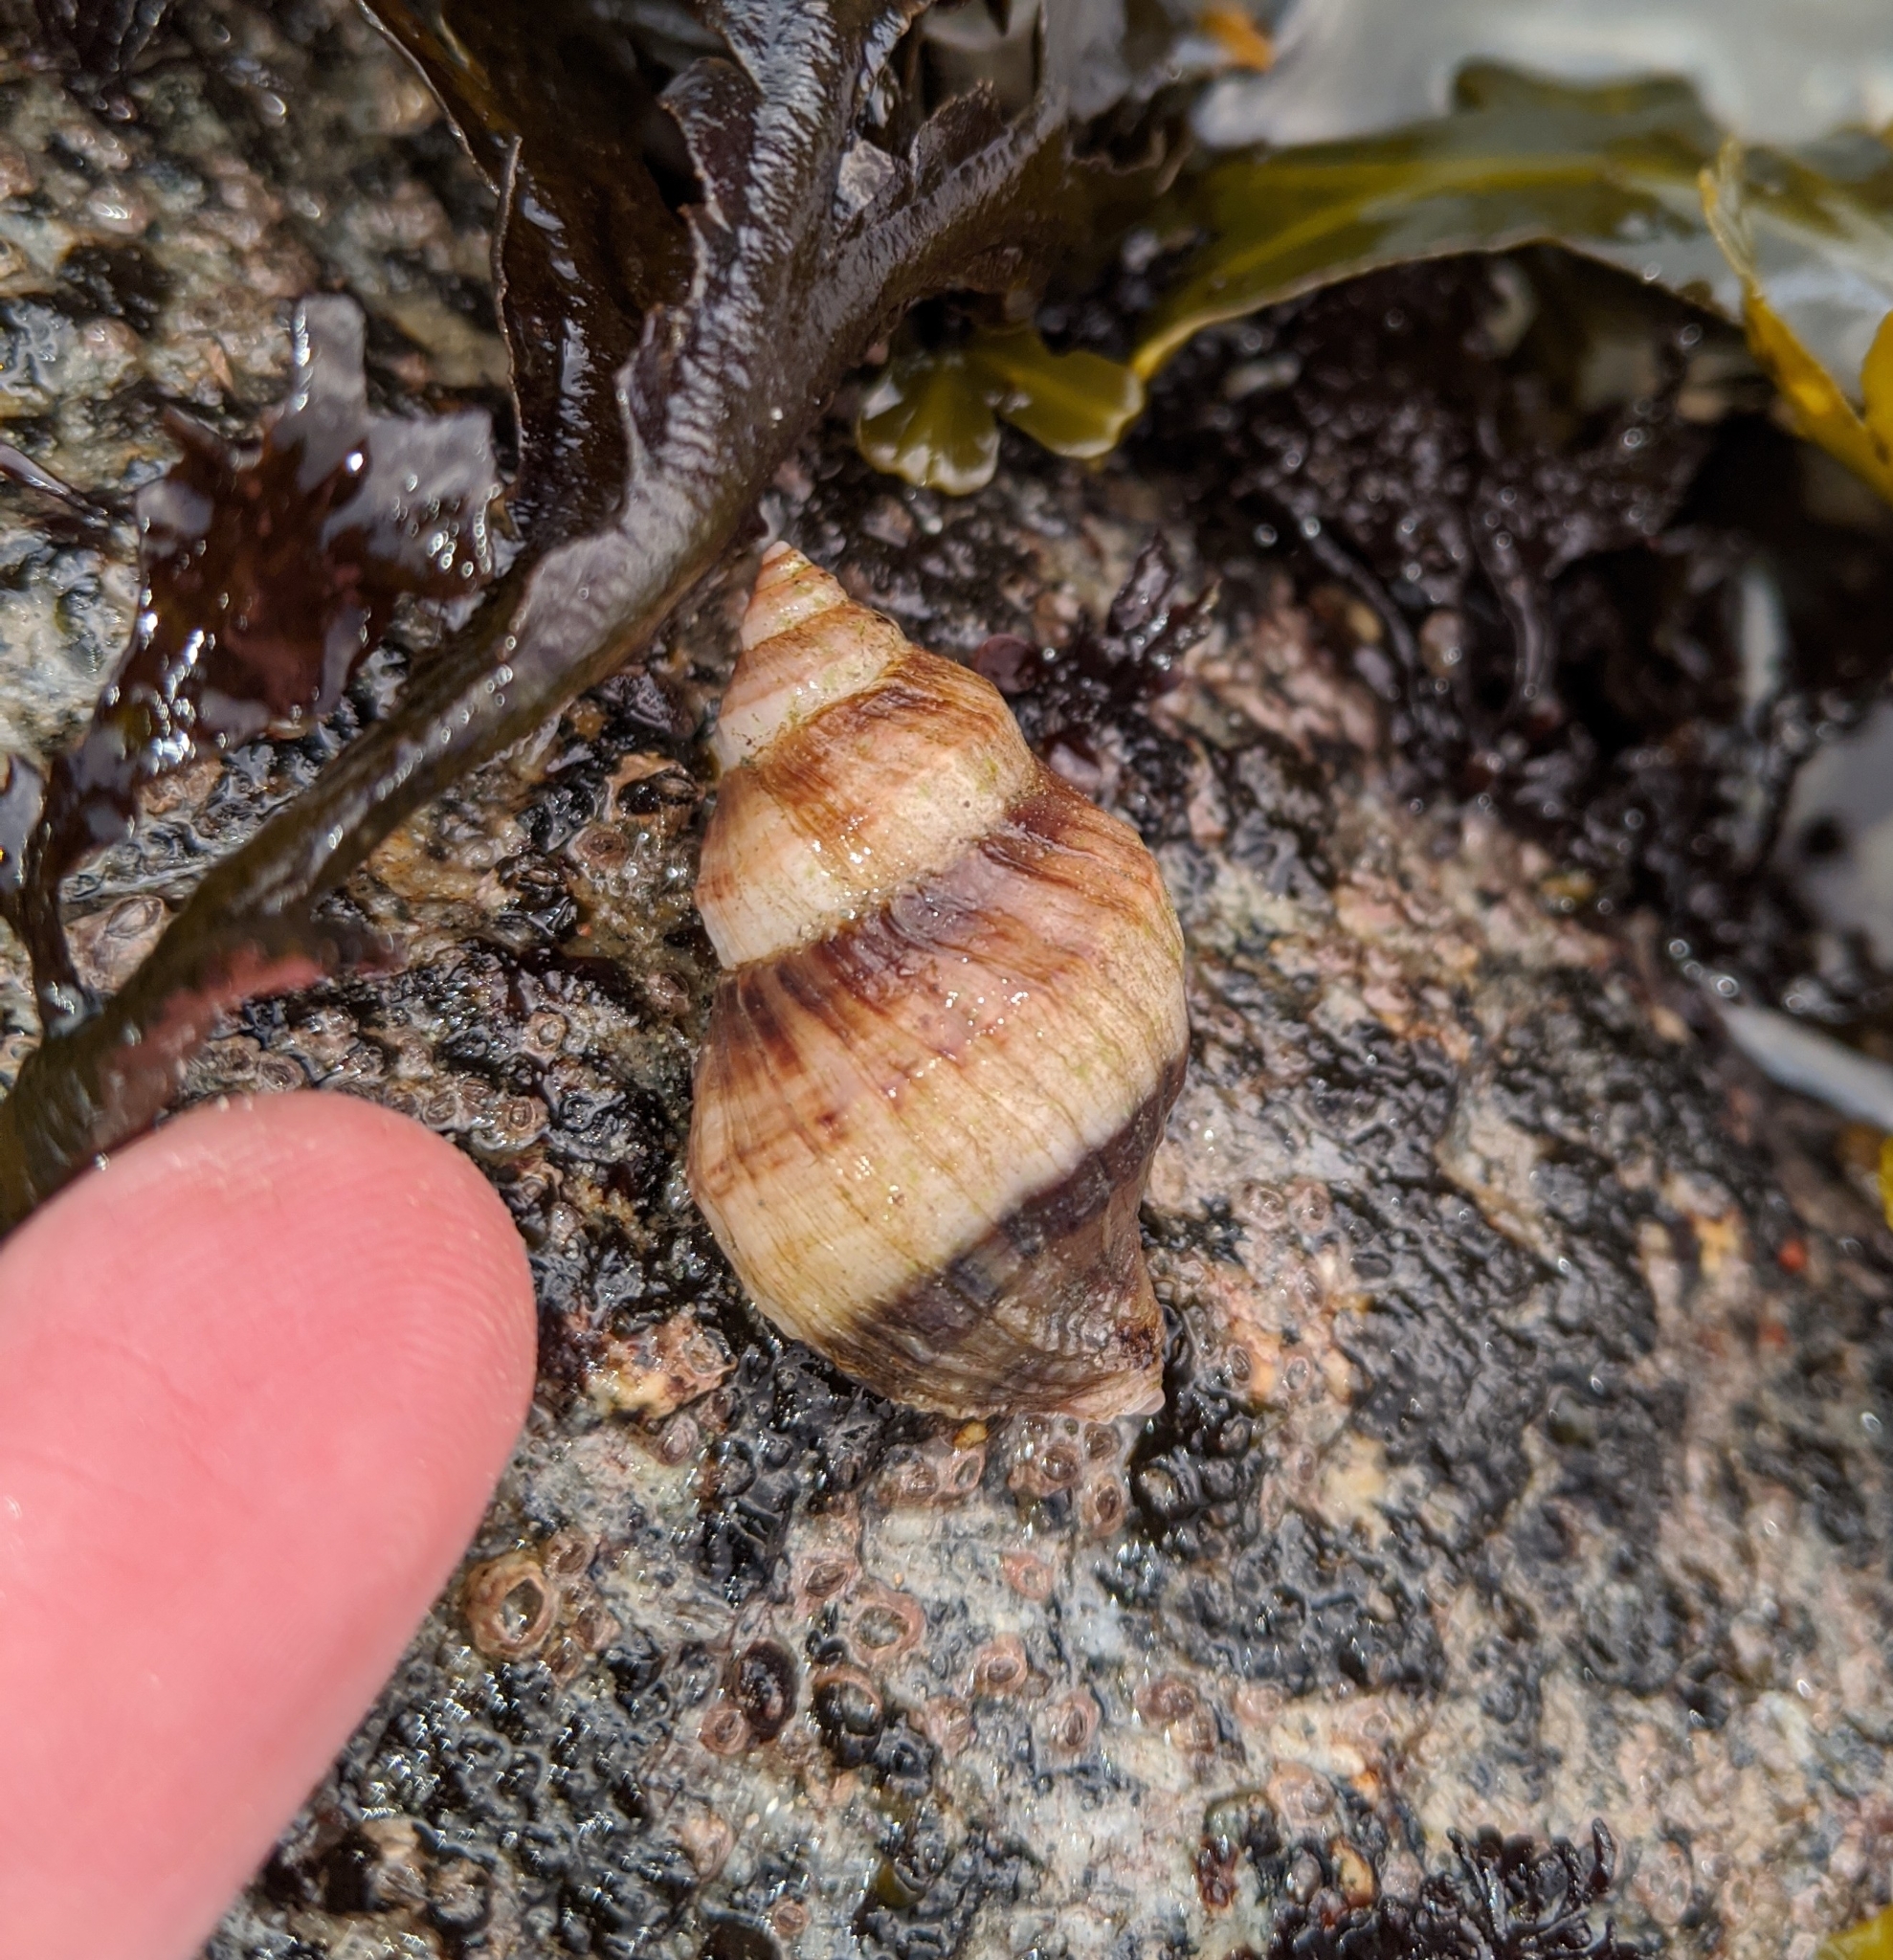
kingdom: Animalia
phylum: Mollusca
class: Gastropoda
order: Neogastropoda
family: Muricidae
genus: Nucella
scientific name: Nucella lamellosa
